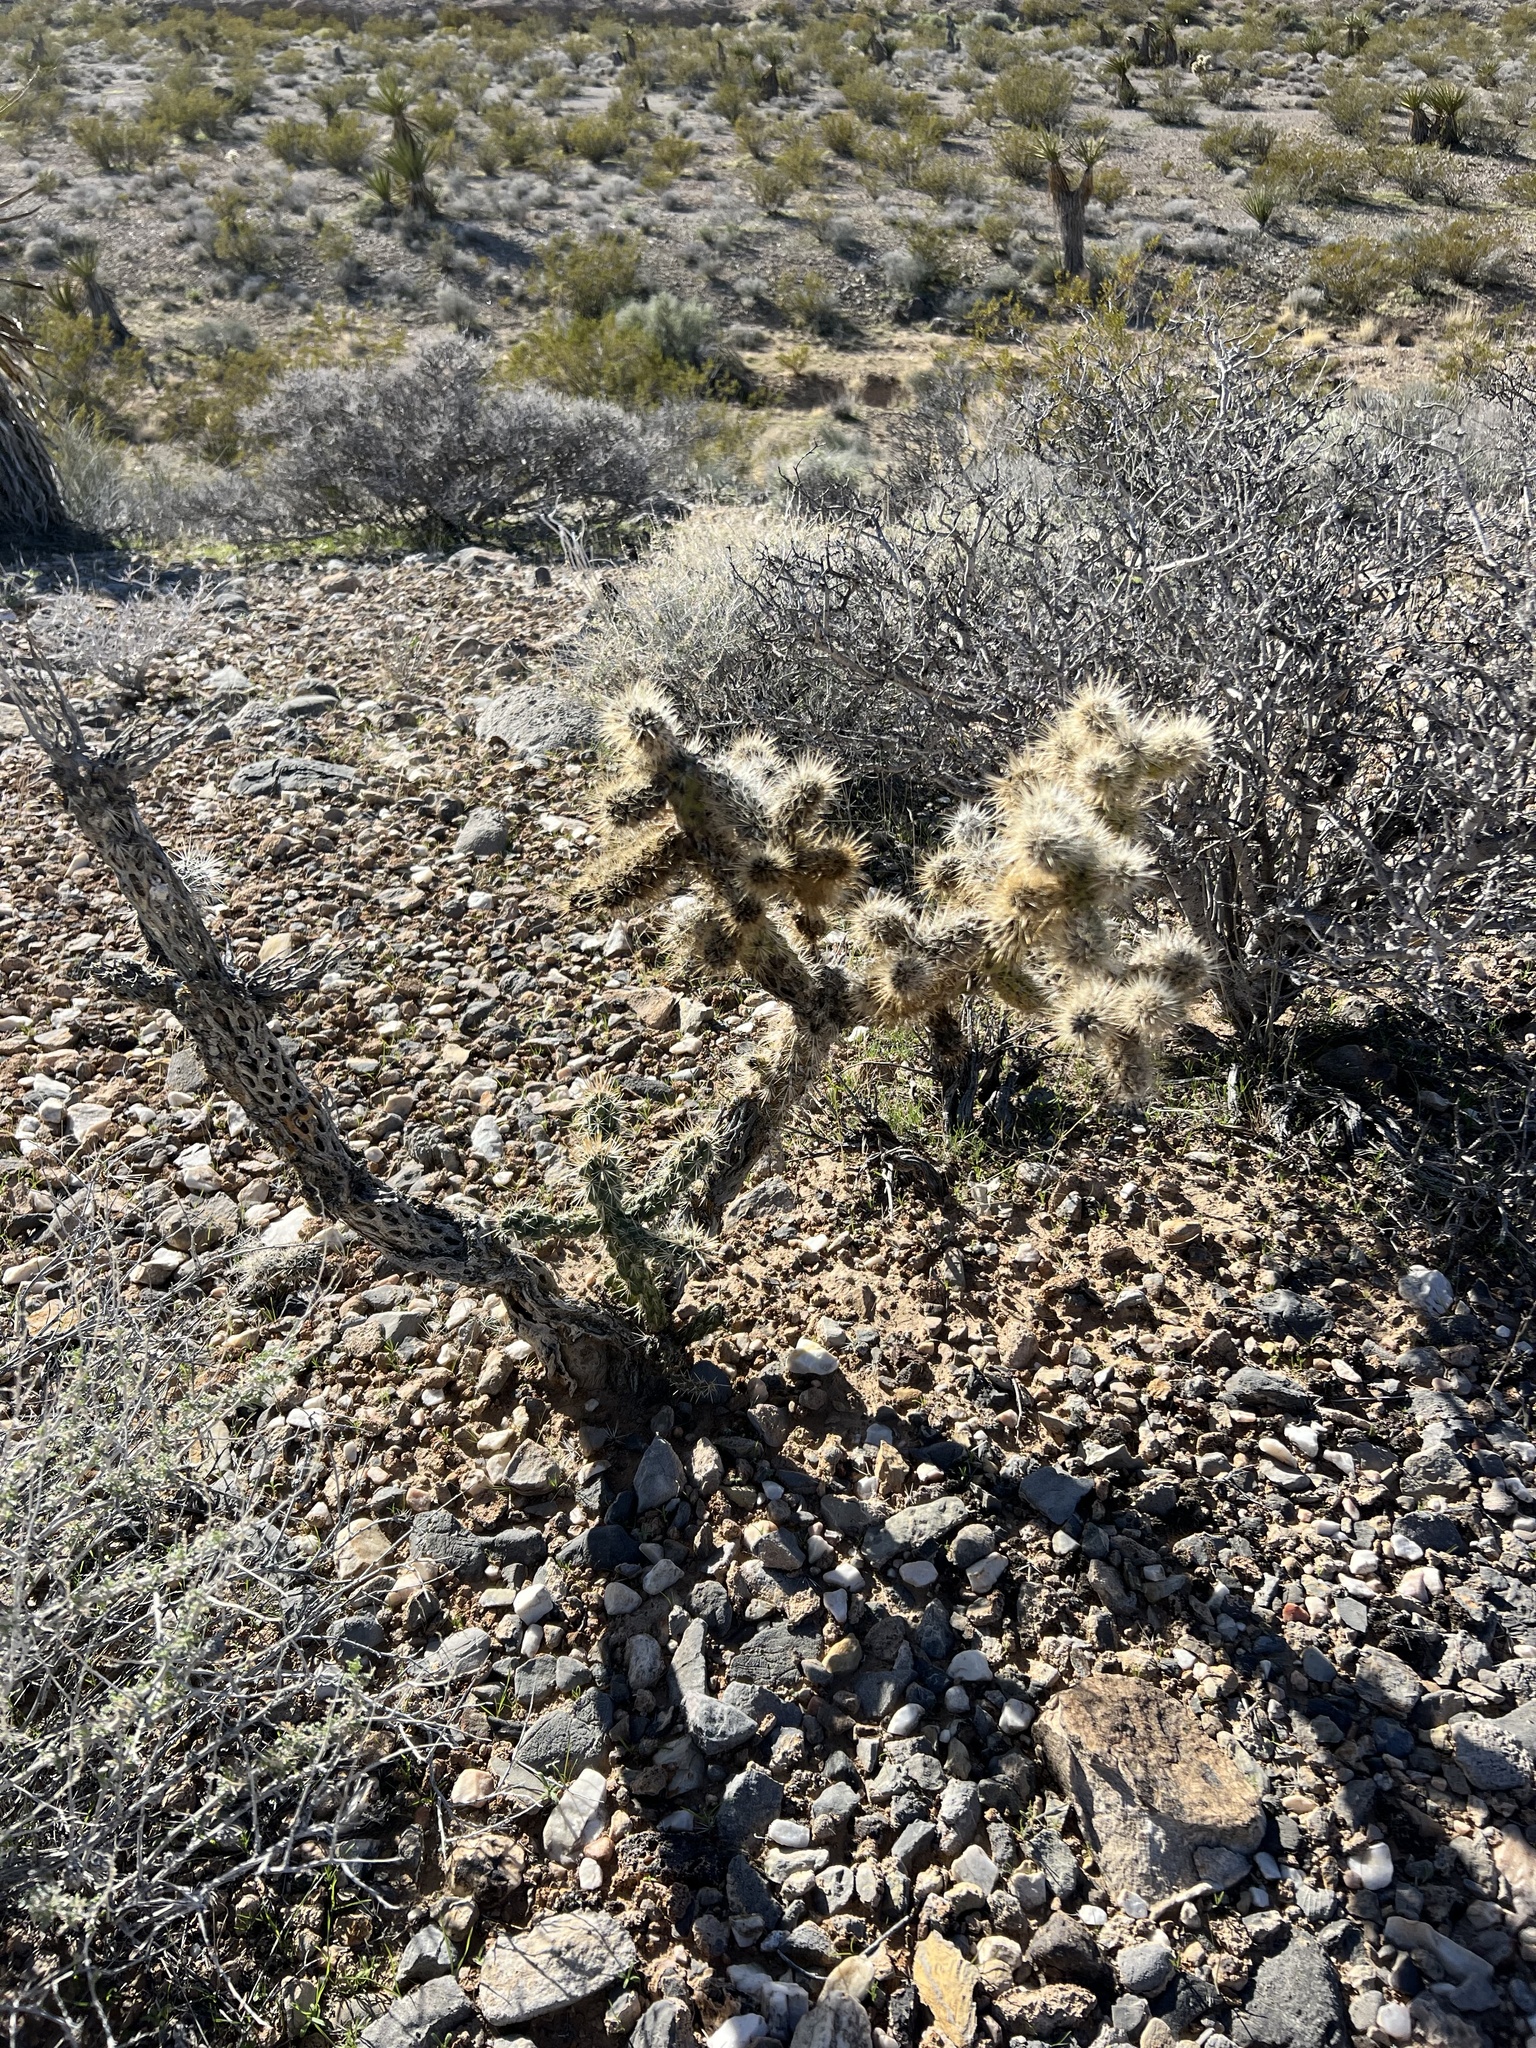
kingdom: Plantae
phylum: Tracheophyta
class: Magnoliopsida
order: Caryophyllales
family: Cactaceae
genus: Cylindropuntia
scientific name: Cylindropuntia echinocarpa
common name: Ground cholla
